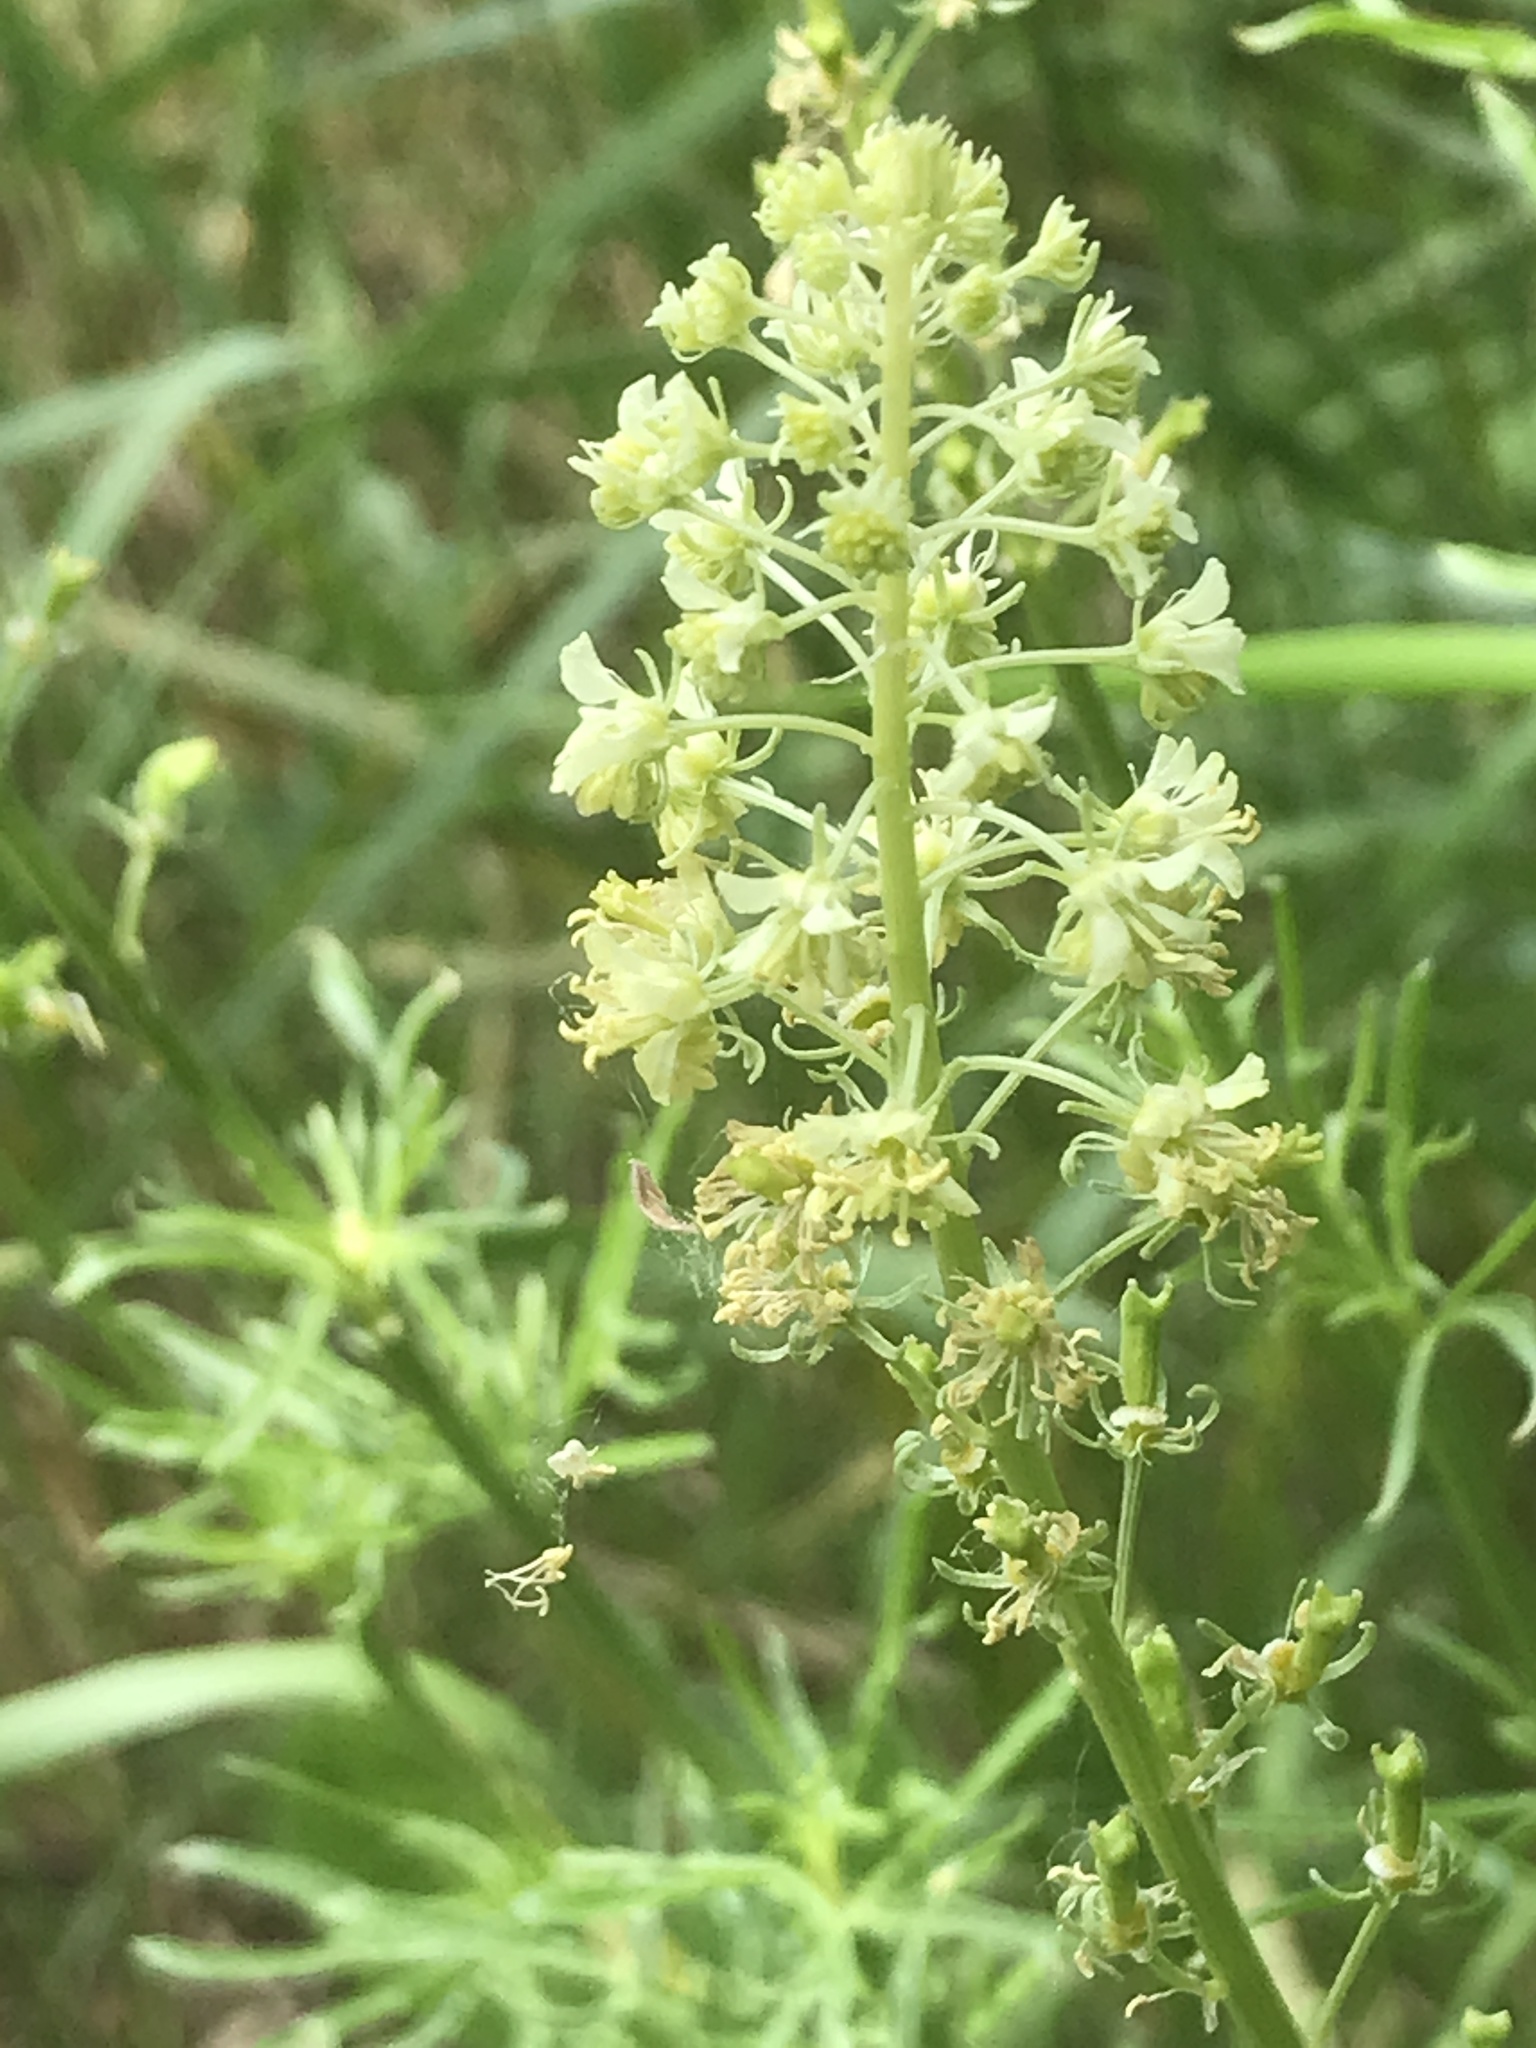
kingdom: Plantae
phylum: Tracheophyta
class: Magnoliopsida
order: Brassicales
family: Resedaceae
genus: Reseda
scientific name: Reseda lutea
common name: Wild mignonette
